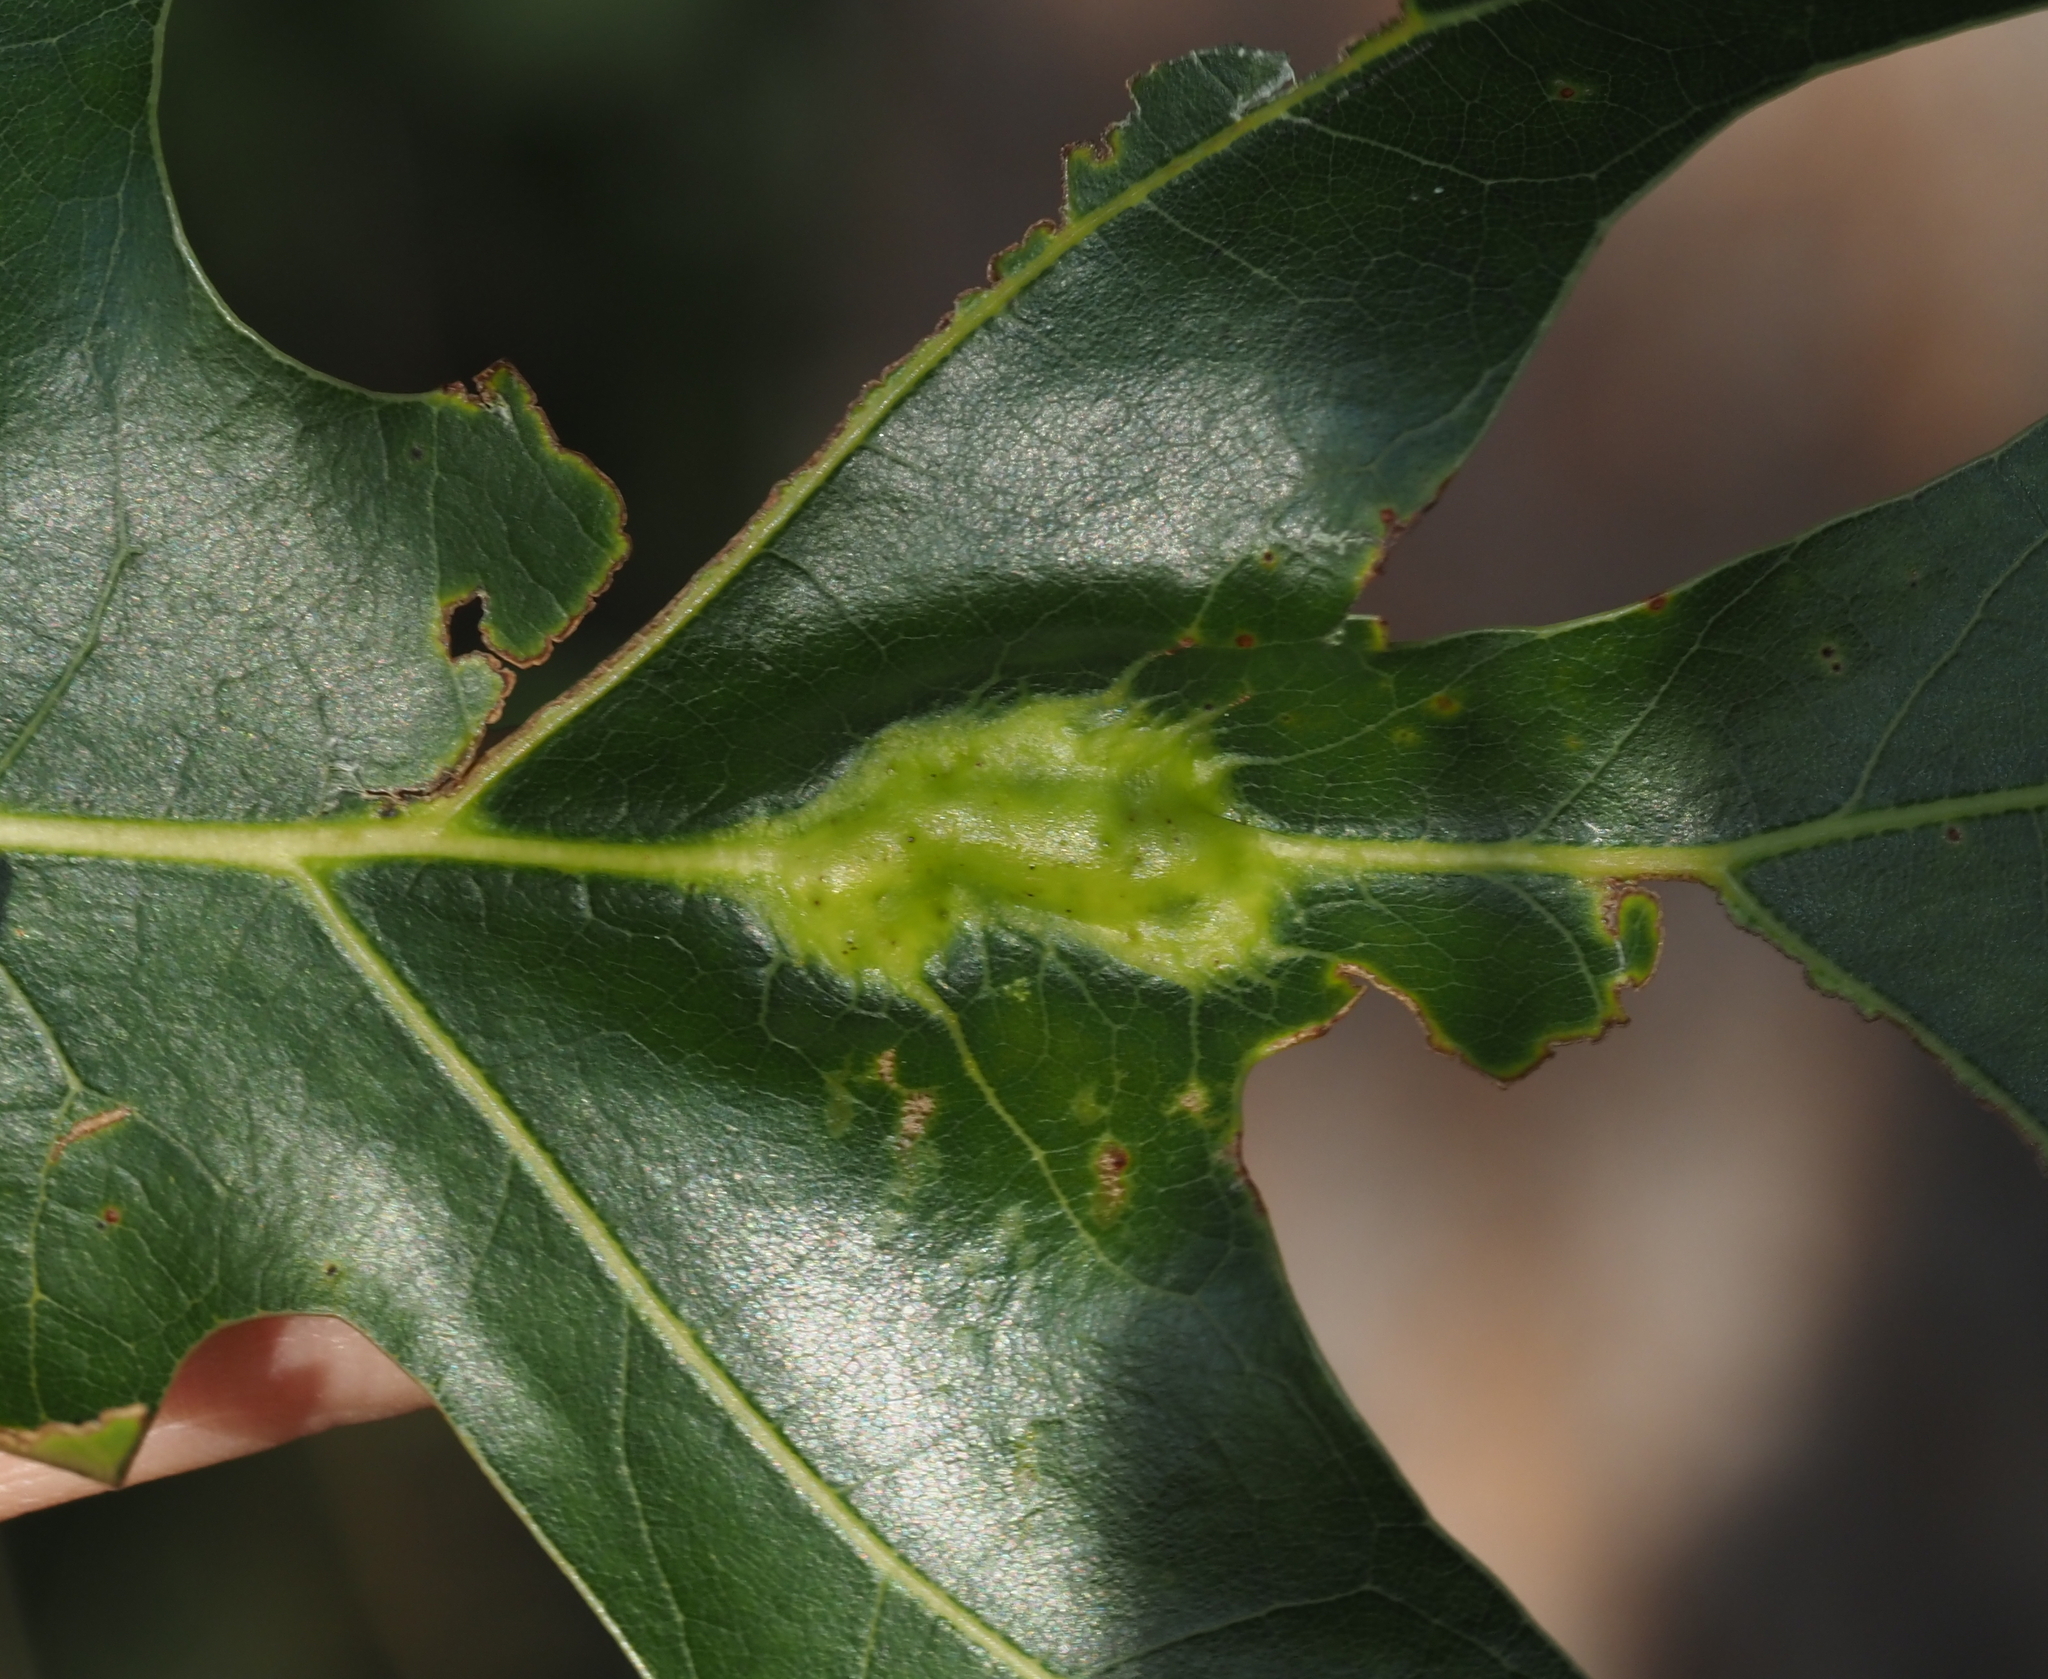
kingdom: Animalia
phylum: Arthropoda
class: Insecta
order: Hymenoptera
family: Cynipidae
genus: Melikaiella
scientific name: Melikaiella tumifica
